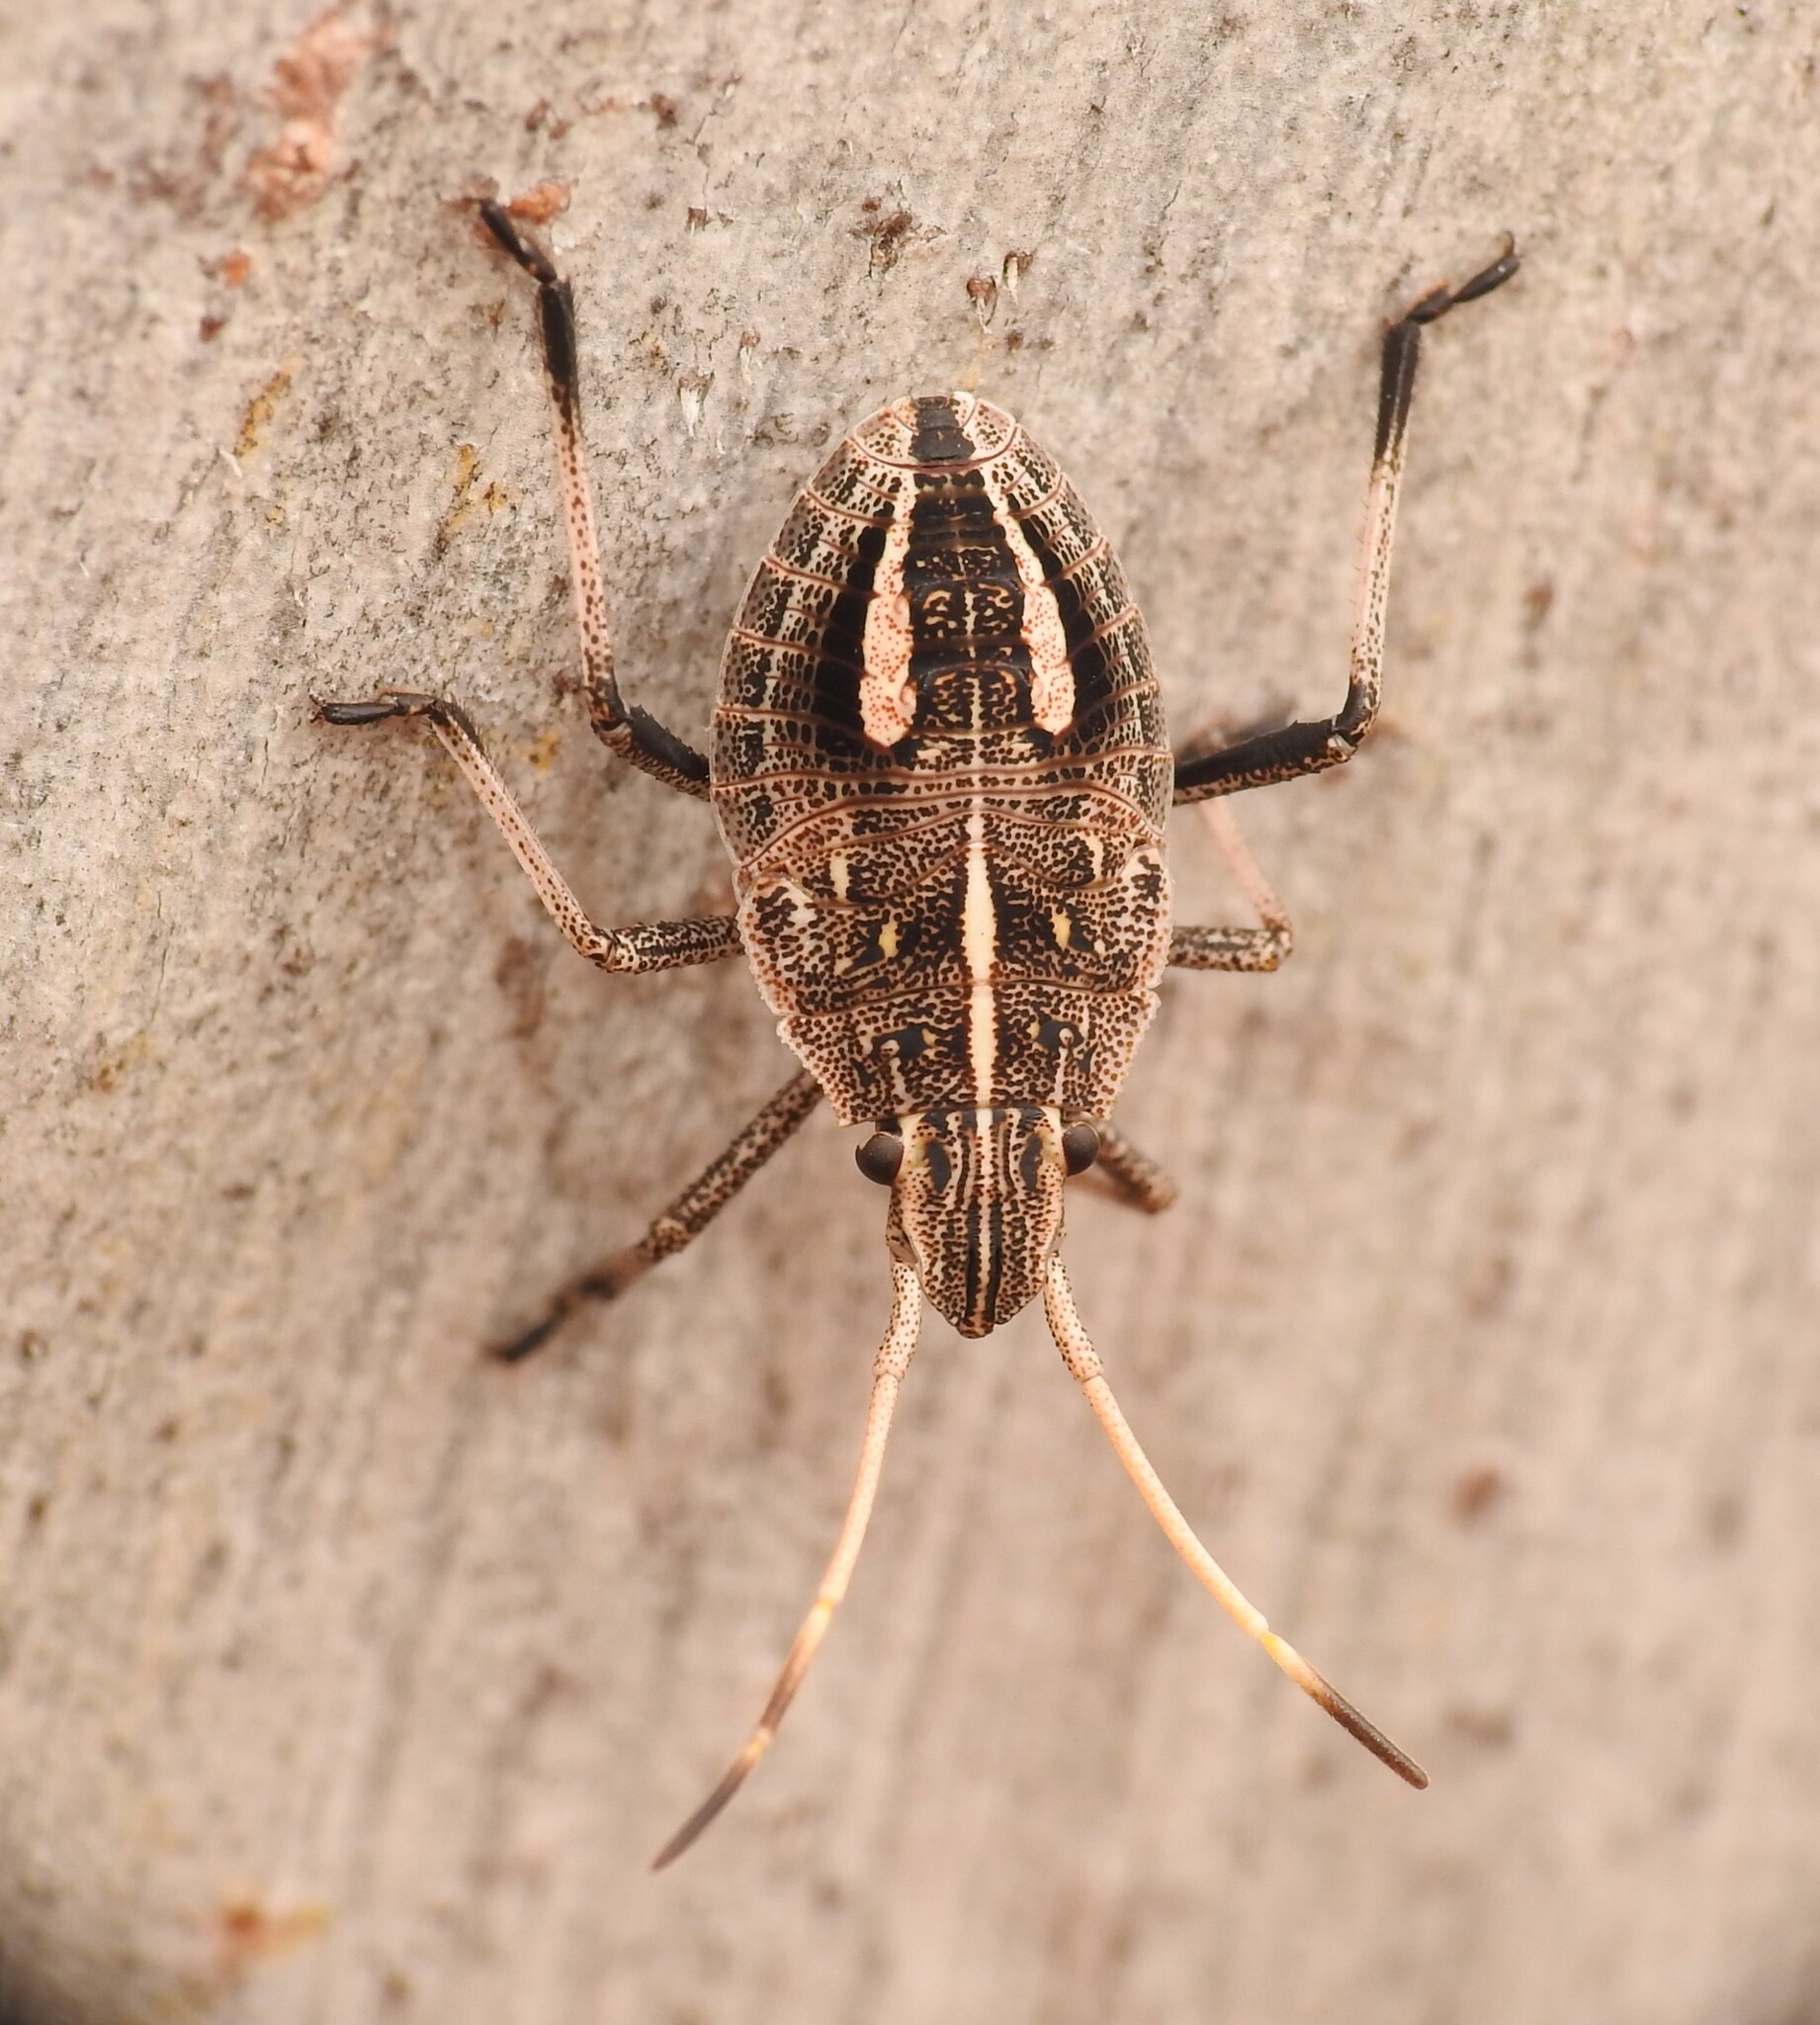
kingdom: Animalia
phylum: Arthropoda
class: Insecta
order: Hemiptera
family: Pentatomidae
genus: Poecilometis
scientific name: Poecilometis
